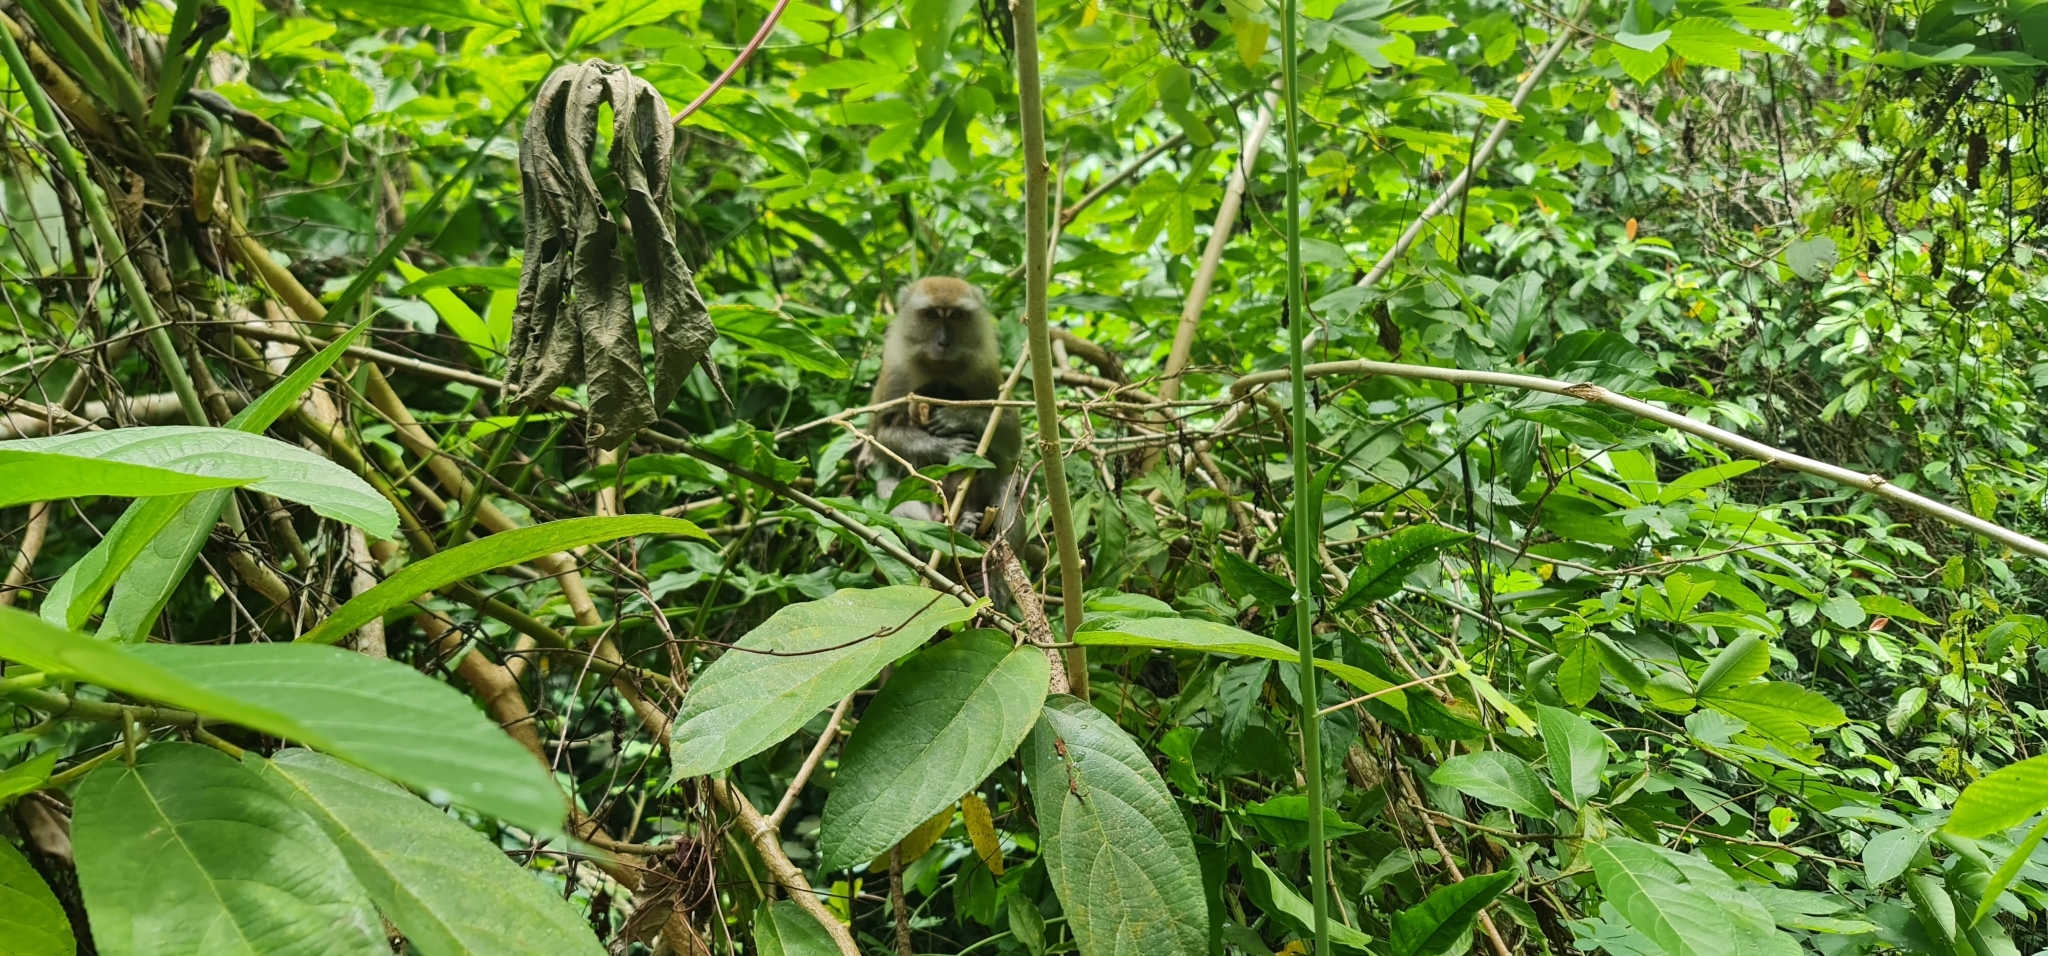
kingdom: Animalia
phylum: Chordata
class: Mammalia
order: Primates
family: Cercopithecidae
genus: Macaca
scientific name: Macaca fascicularis
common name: Crab-eating macaque
